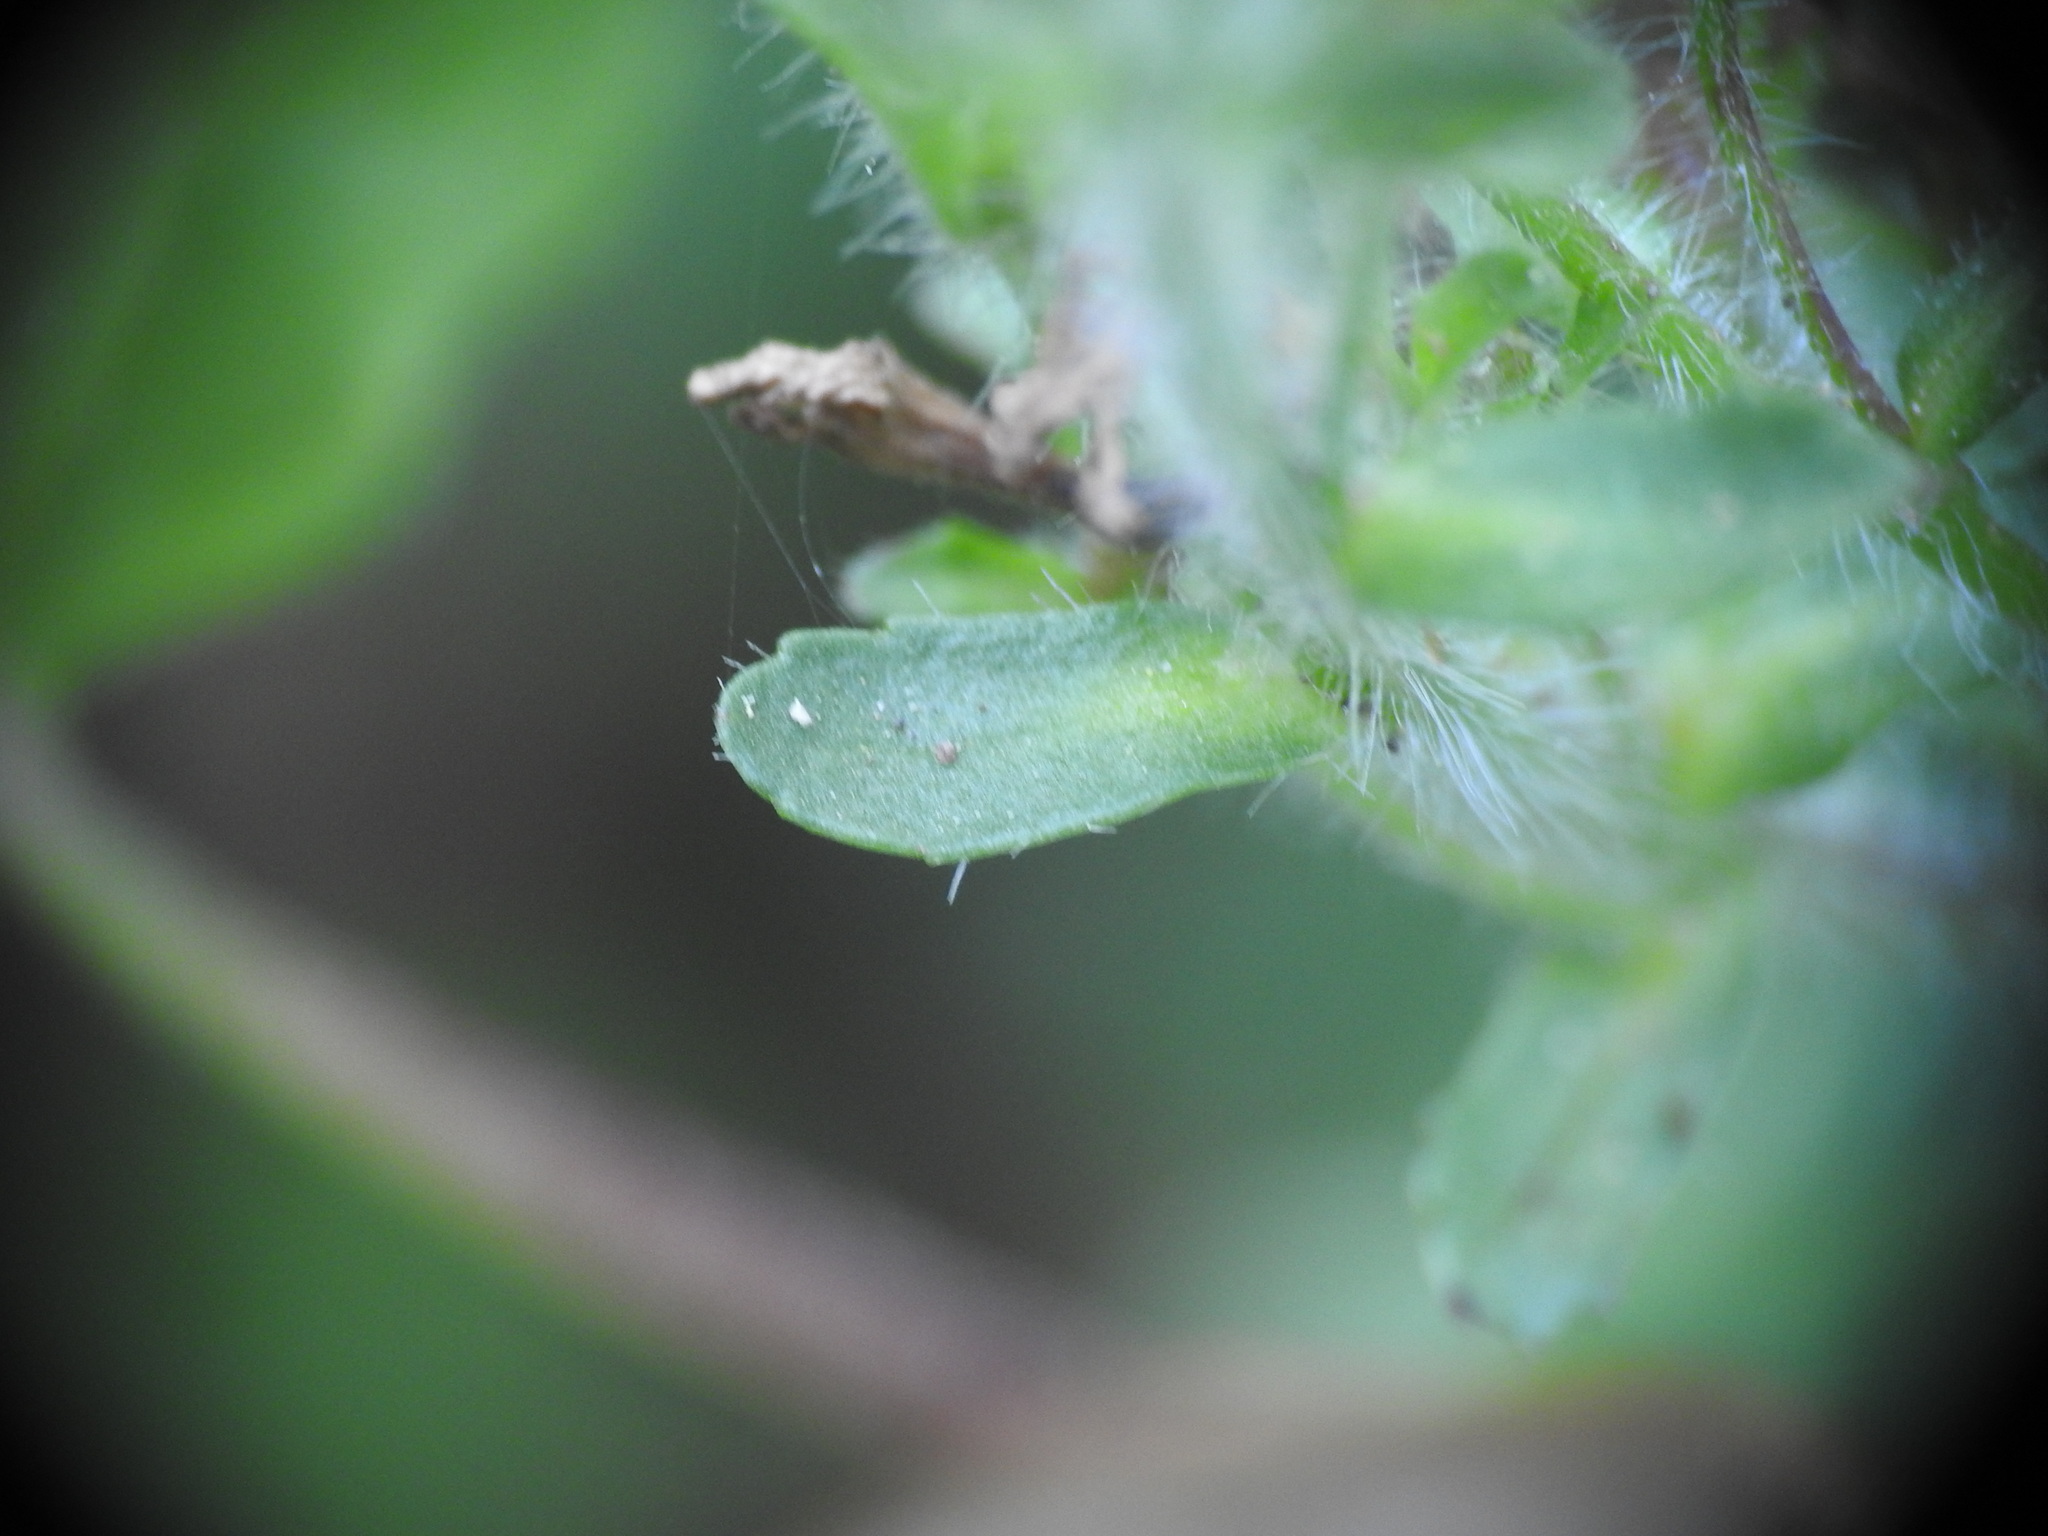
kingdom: Plantae
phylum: Tracheophyta
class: Magnoliopsida
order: Lamiales
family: Plantaginaceae
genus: Erinus
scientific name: Erinus alpinus
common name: Fairy foxglove
